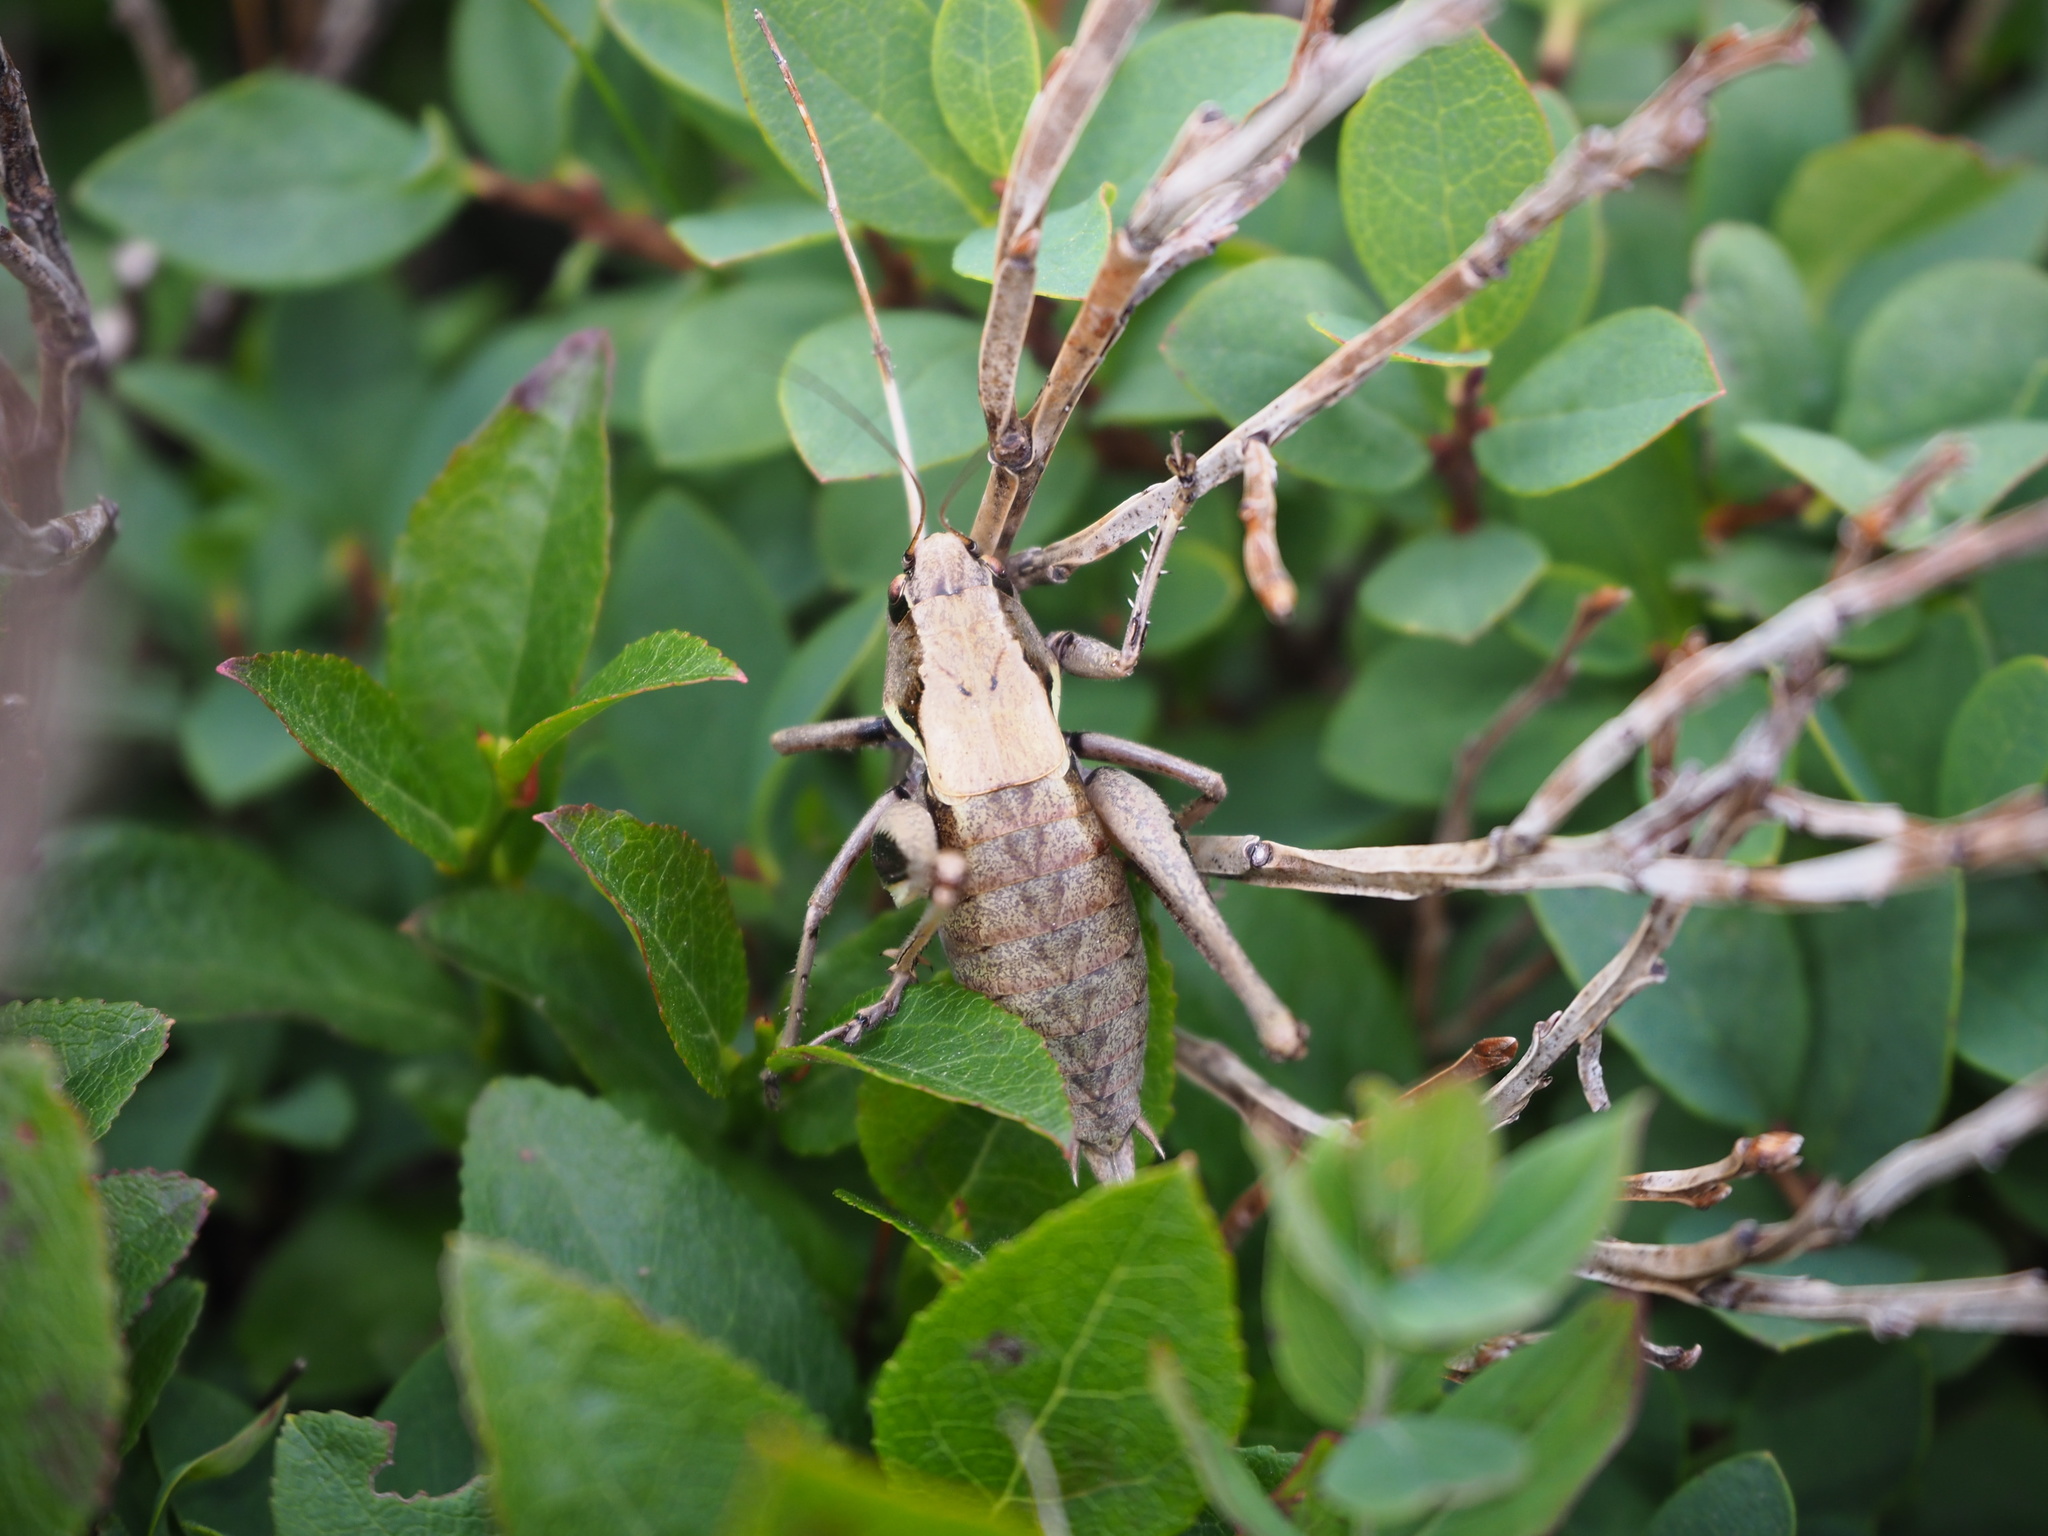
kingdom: Animalia
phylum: Arthropoda
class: Insecta
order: Orthoptera
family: Tettigoniidae
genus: Pholidoptera
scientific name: Pholidoptera aptera
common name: Alpine dark bush-cricket
